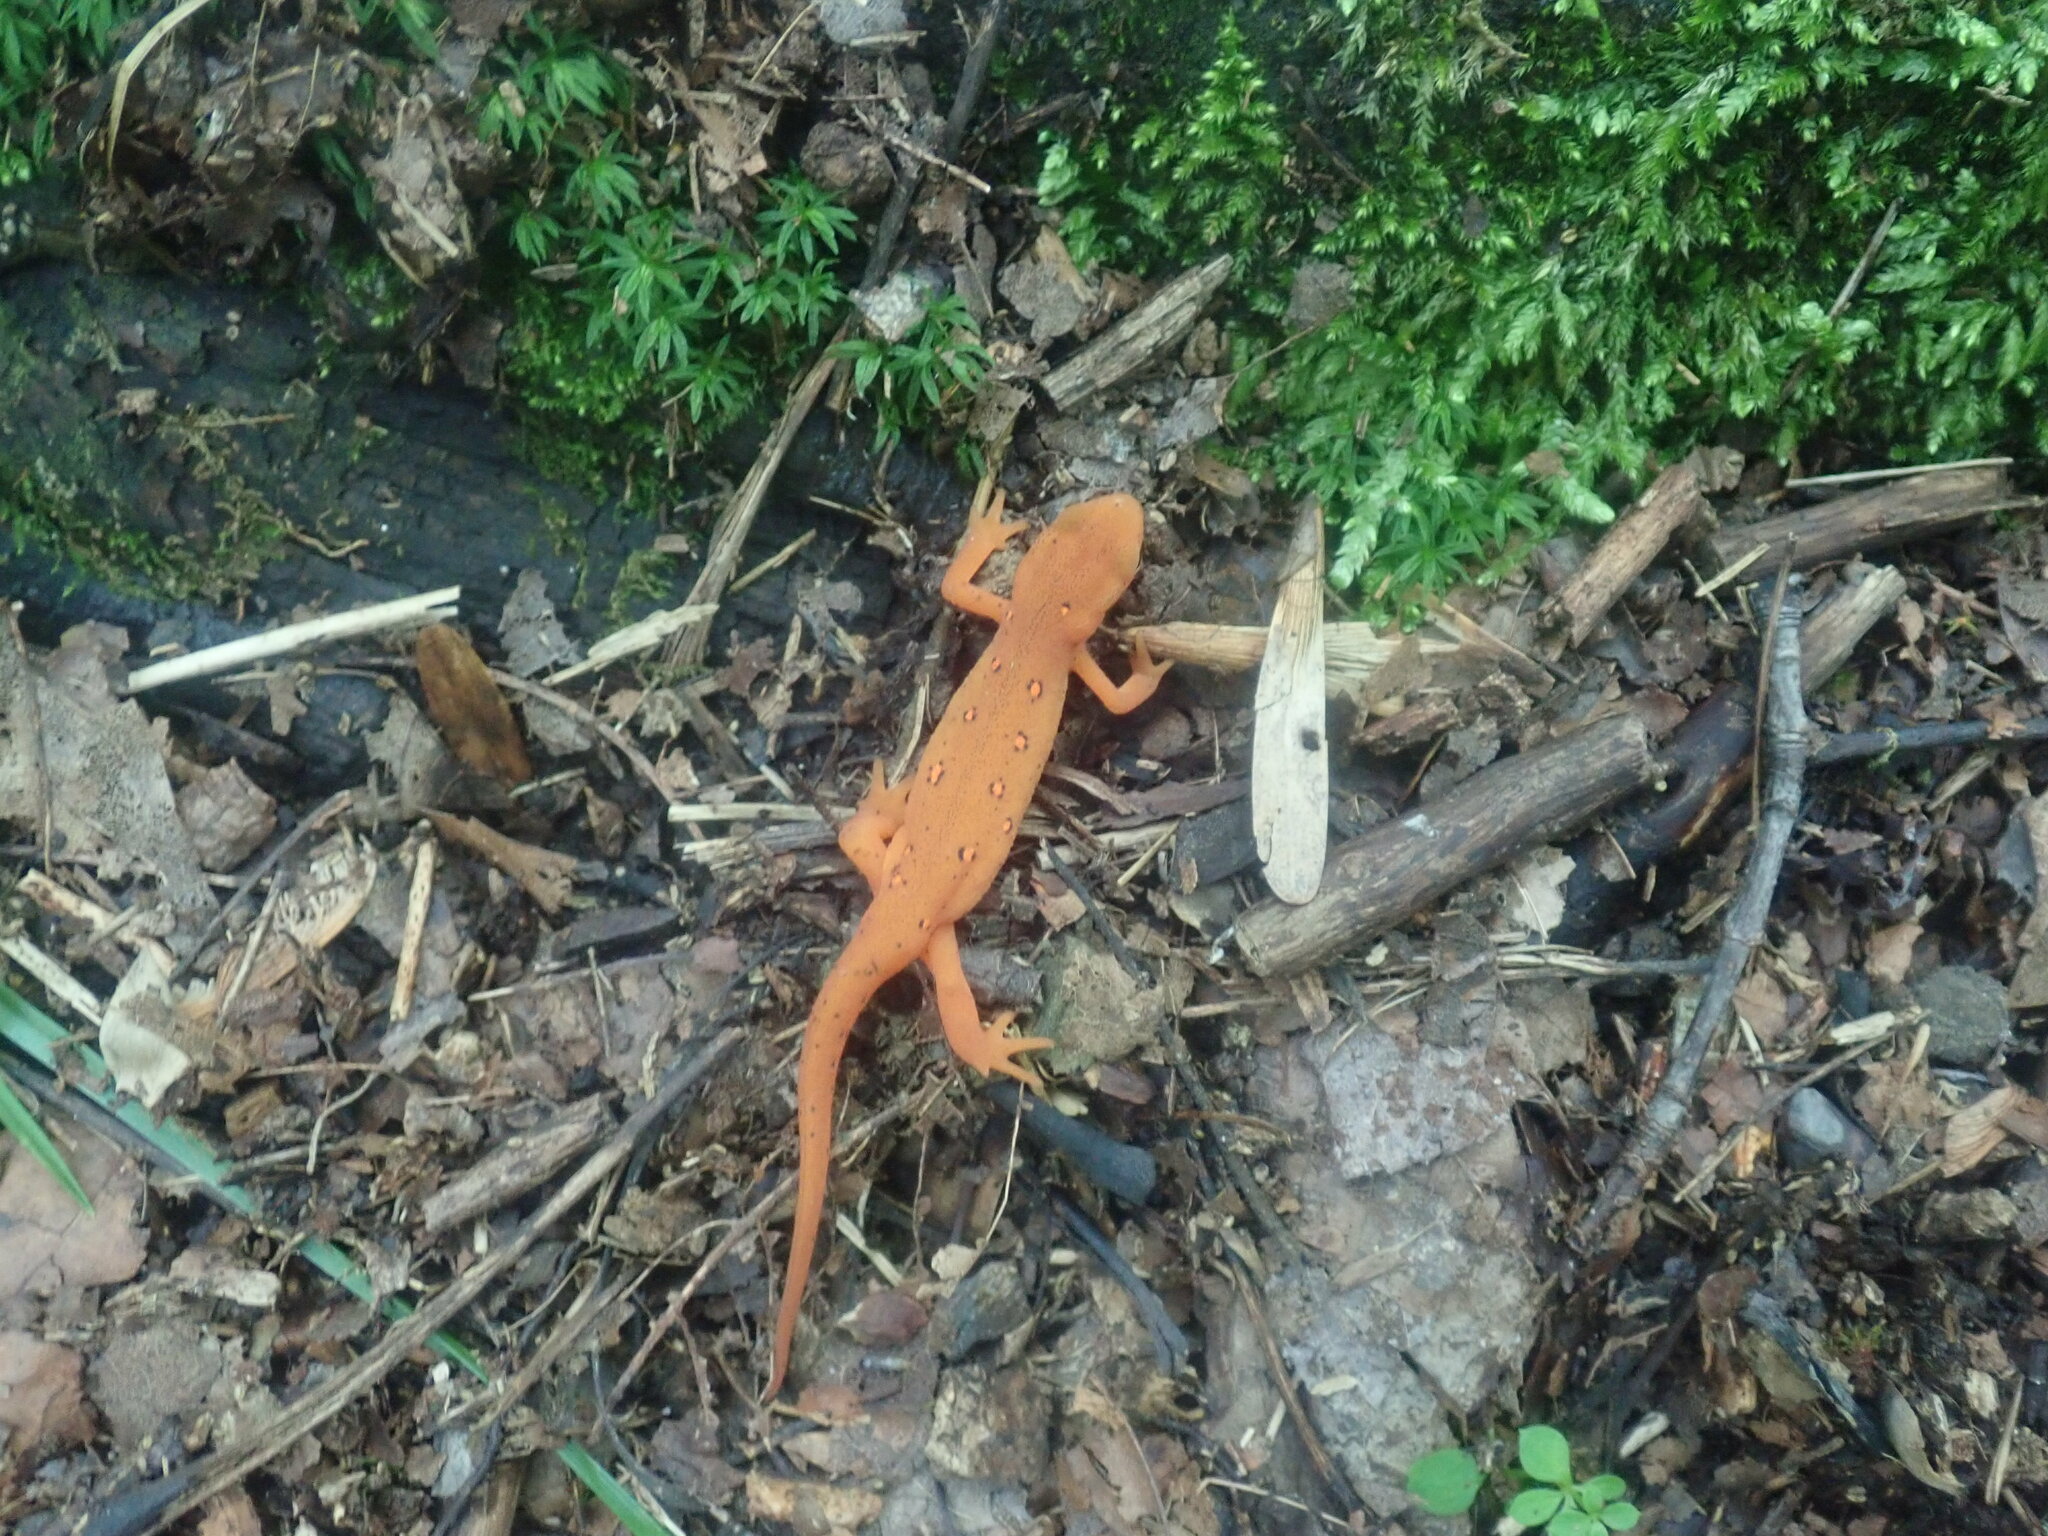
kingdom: Animalia
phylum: Chordata
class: Amphibia
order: Caudata
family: Salamandridae
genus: Notophthalmus
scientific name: Notophthalmus viridescens
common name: Eastern newt
